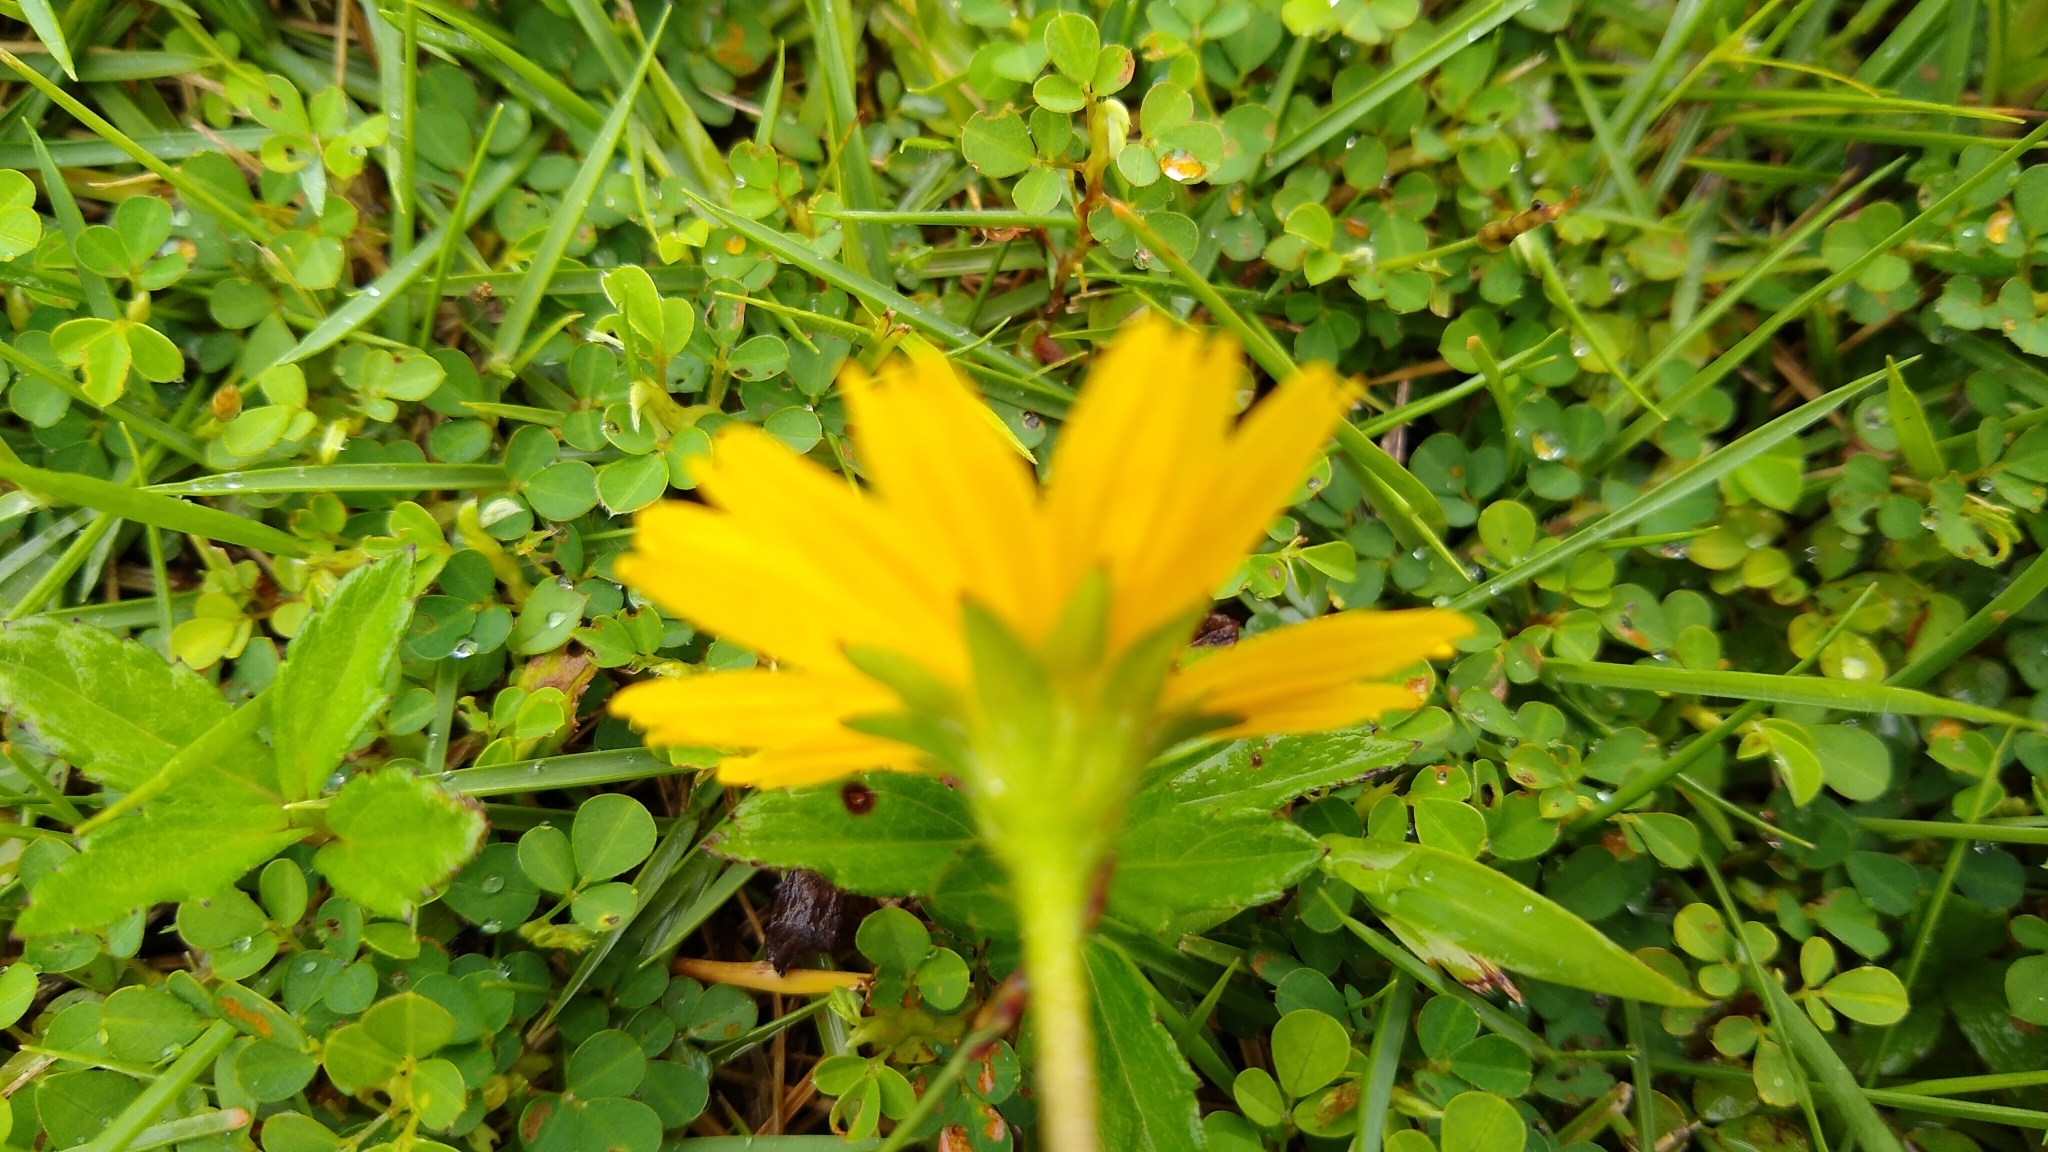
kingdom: Plantae
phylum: Tracheophyta
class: Magnoliopsida
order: Asterales
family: Asteraceae
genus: Sphagneticola
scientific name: Sphagneticola trilobata
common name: Bay biscayne creeping-oxeye
